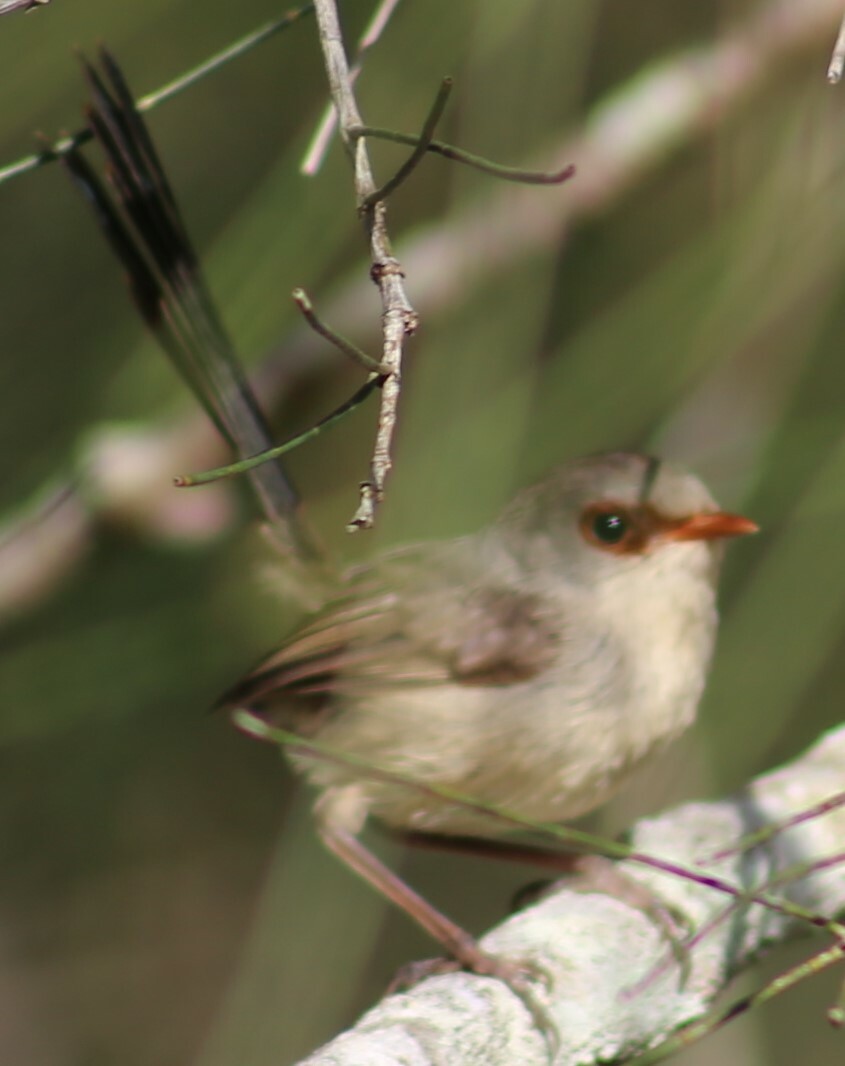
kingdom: Animalia
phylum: Chordata
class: Aves
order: Passeriformes
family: Maluridae
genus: Malurus
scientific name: Malurus lamberti
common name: Variegated fairywren
